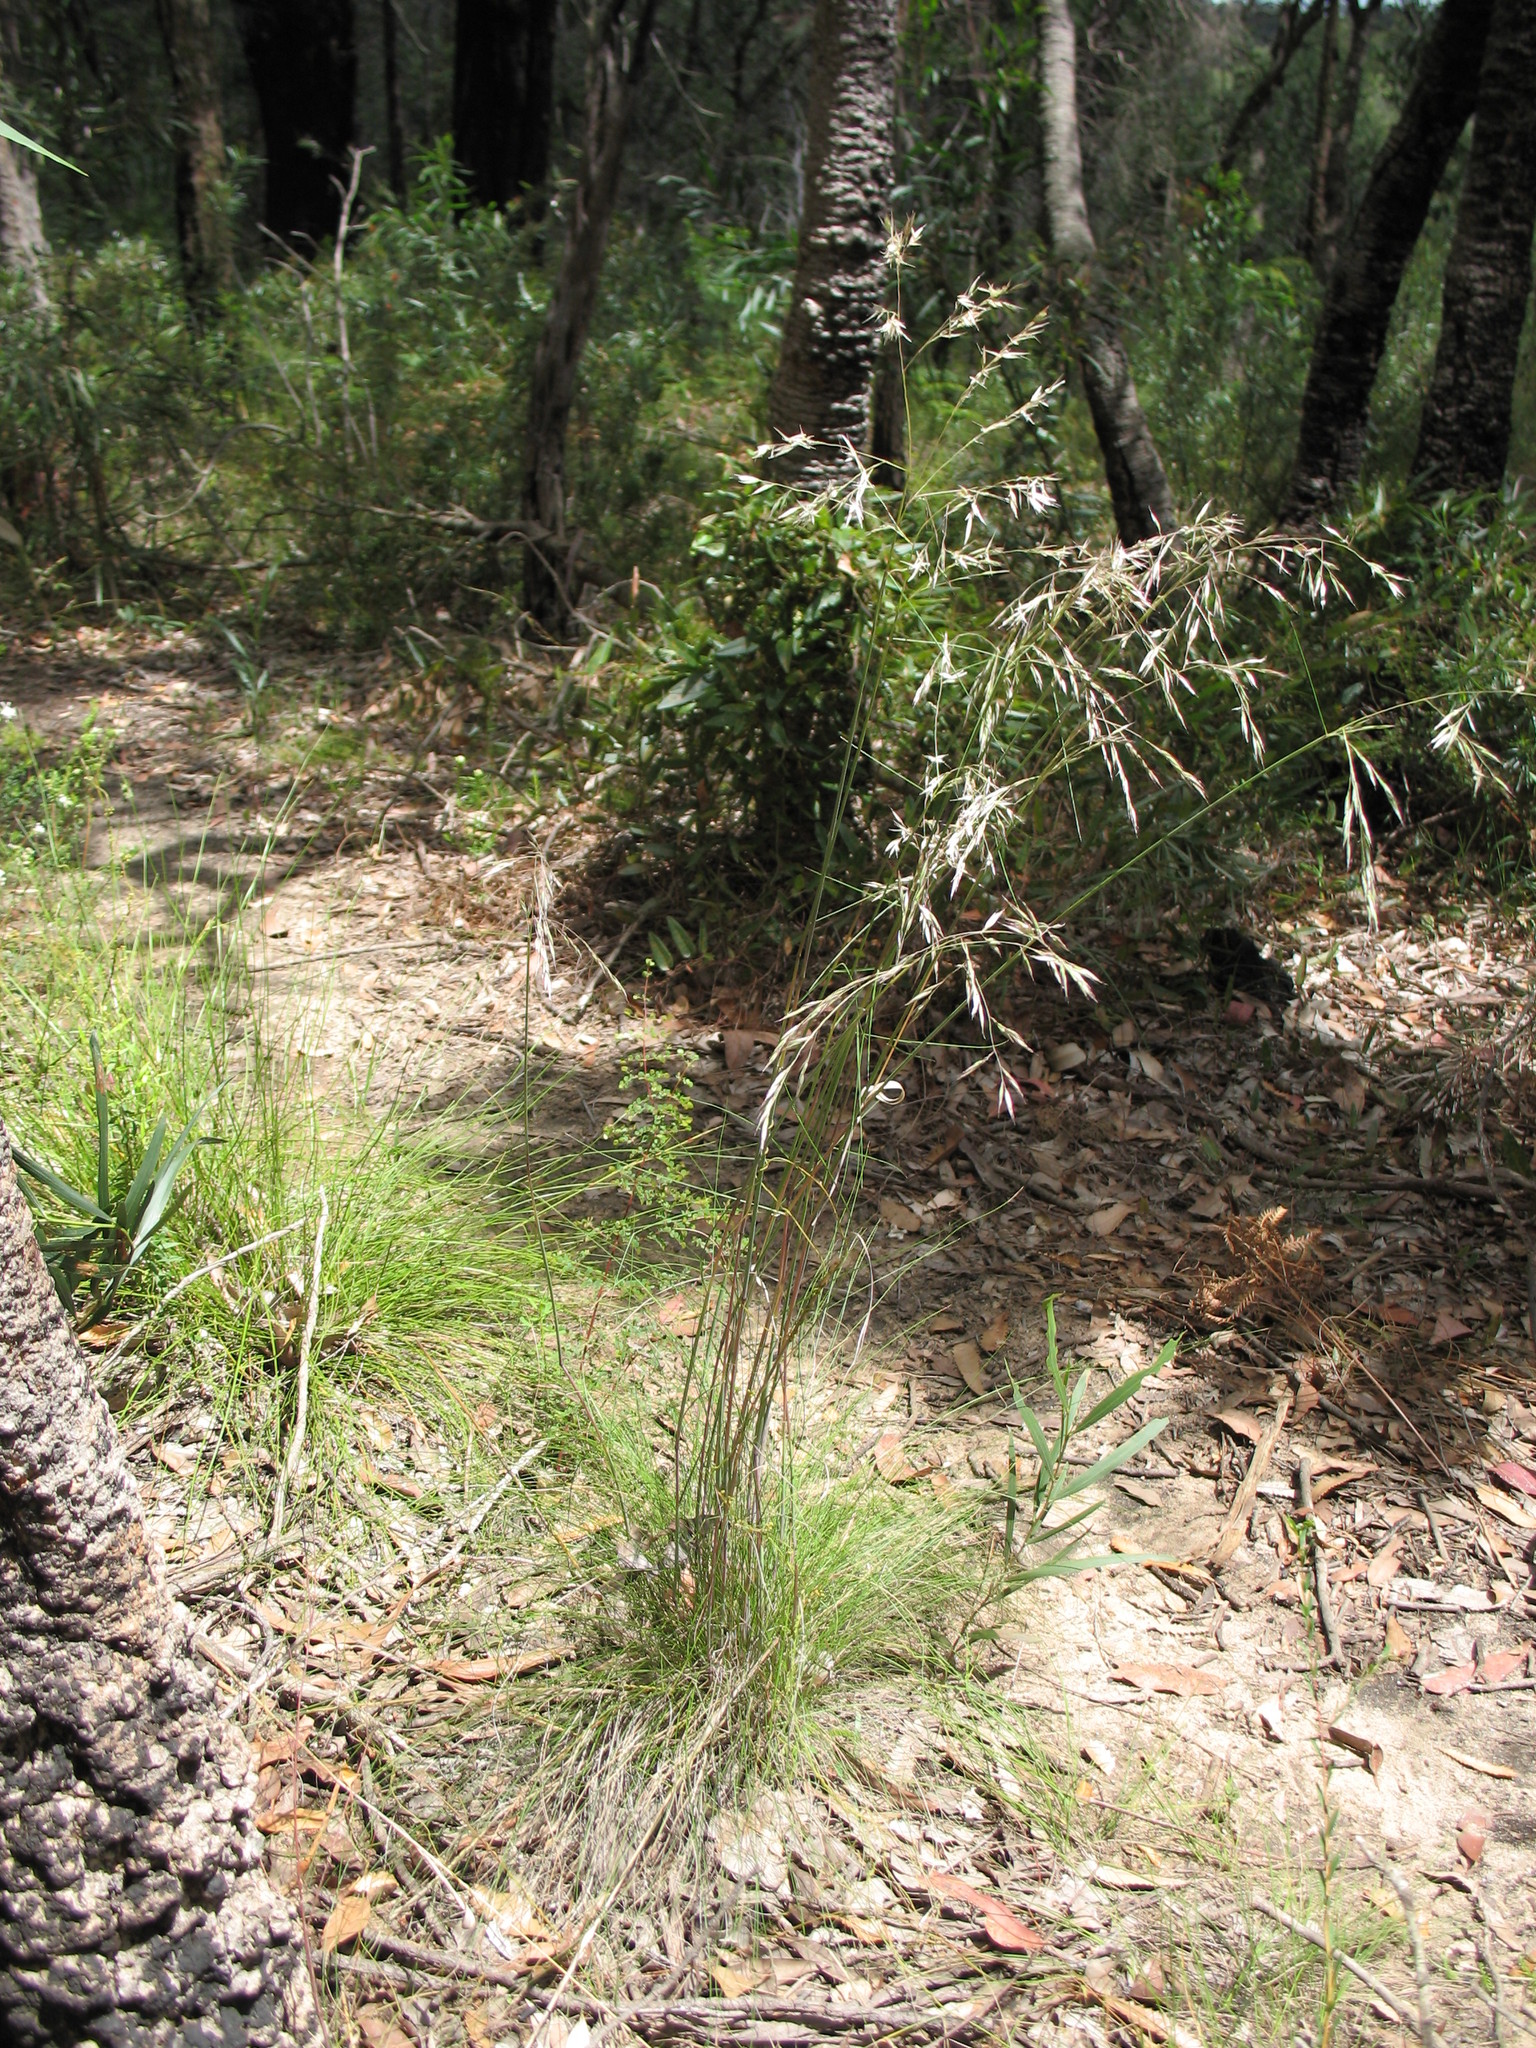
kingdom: Plantae
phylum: Tracheophyta
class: Liliopsida
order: Poales
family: Poaceae
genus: Rytidosperma
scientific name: Rytidosperma pallidum
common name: Red-anther wallaby grass
